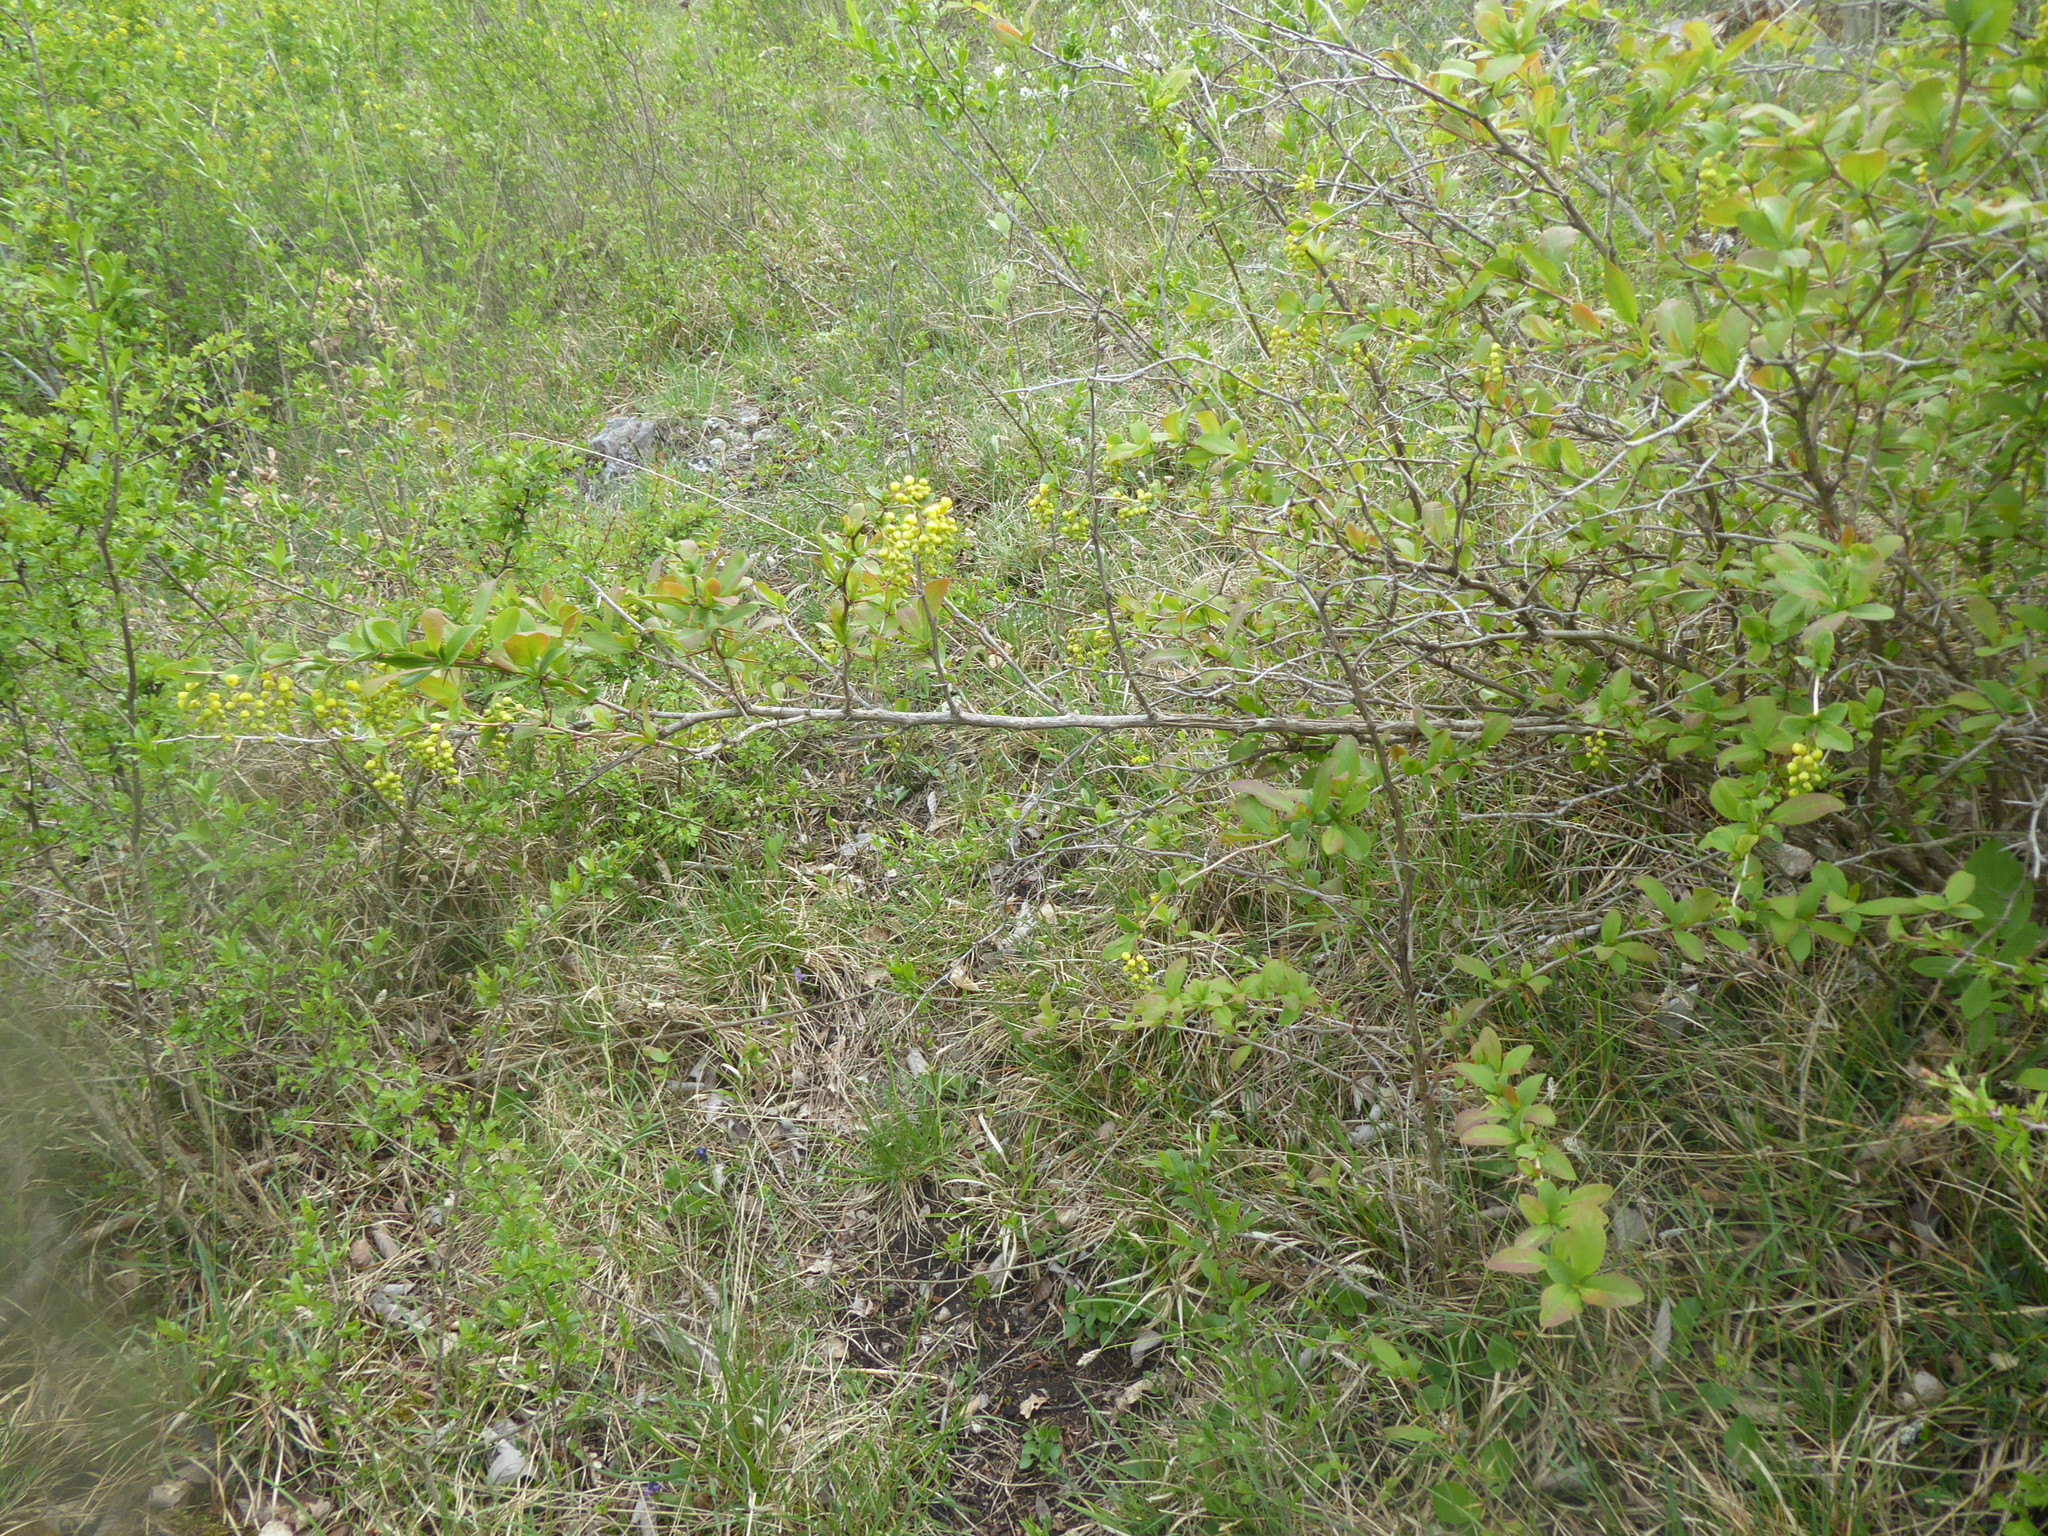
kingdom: Plantae
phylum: Tracheophyta
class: Magnoliopsida
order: Ranunculales
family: Berberidaceae
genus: Berberis
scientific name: Berberis vulgaris
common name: Barberry
